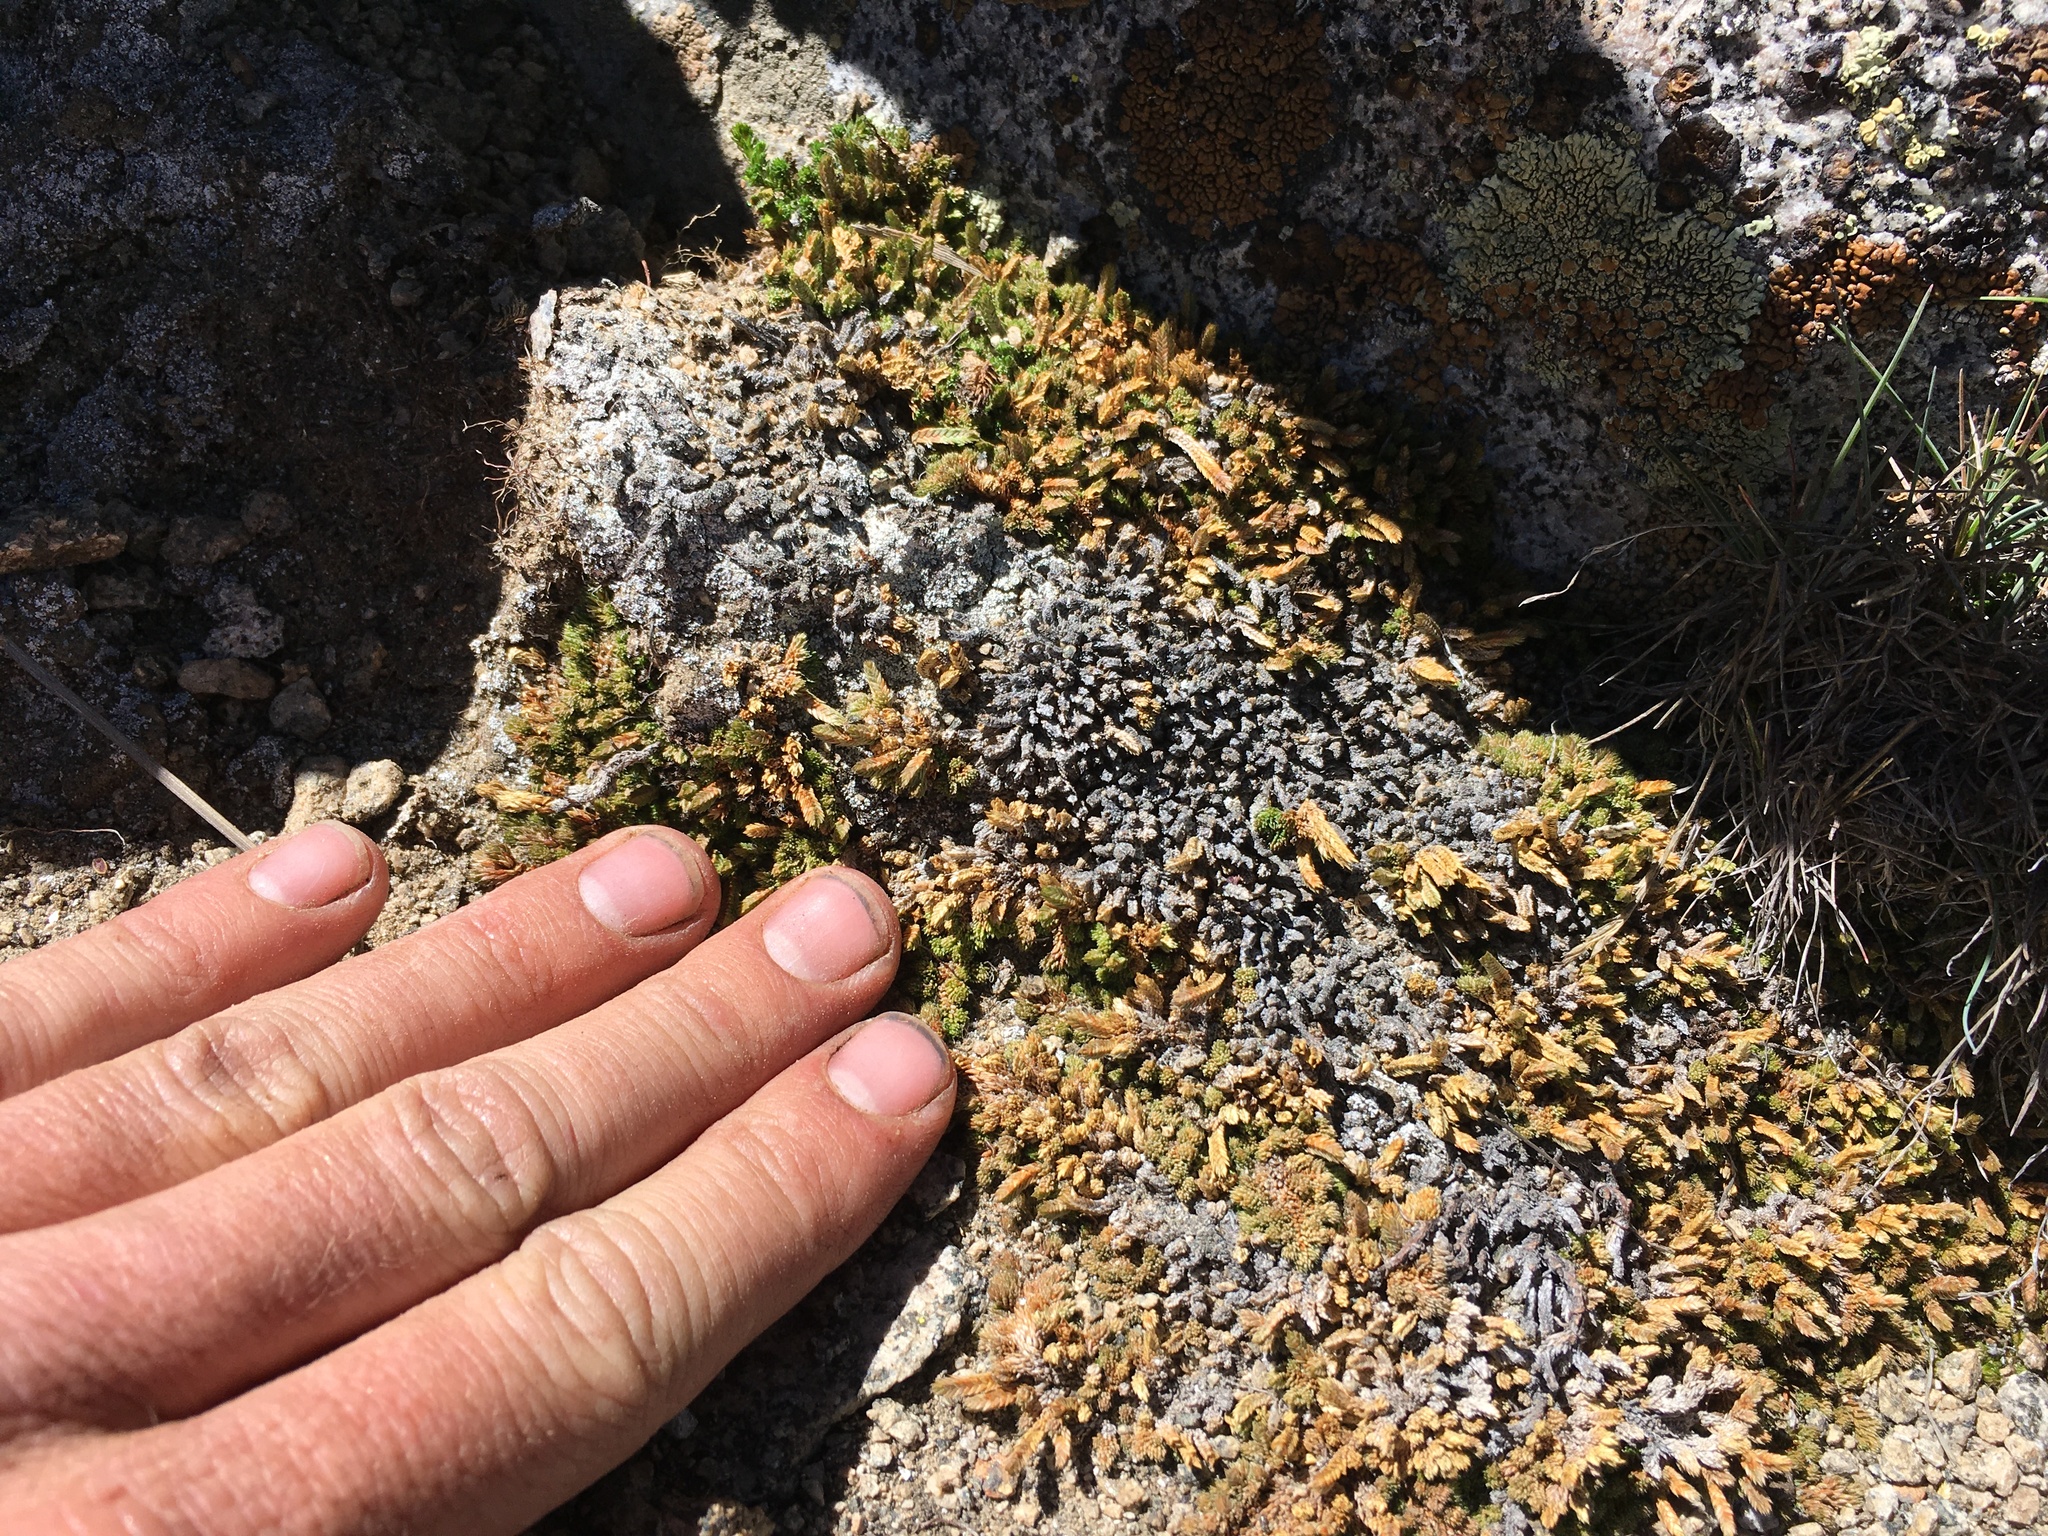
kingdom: Plantae
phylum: Tracheophyta
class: Lycopodiopsida
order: Selaginellales
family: Selaginellaceae
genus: Selaginella
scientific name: Selaginella watsonii
